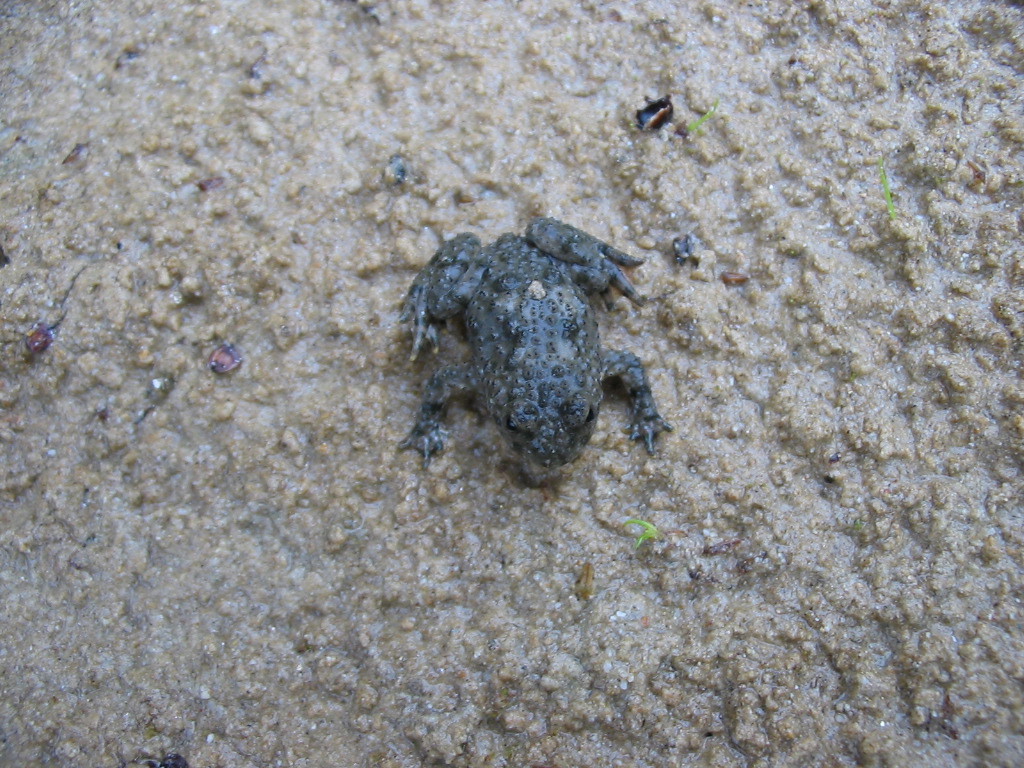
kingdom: Animalia
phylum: Chordata
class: Amphibia
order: Anura
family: Bombinatoridae
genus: Bombina
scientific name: Bombina variegata
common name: Yellow-bellied toad
